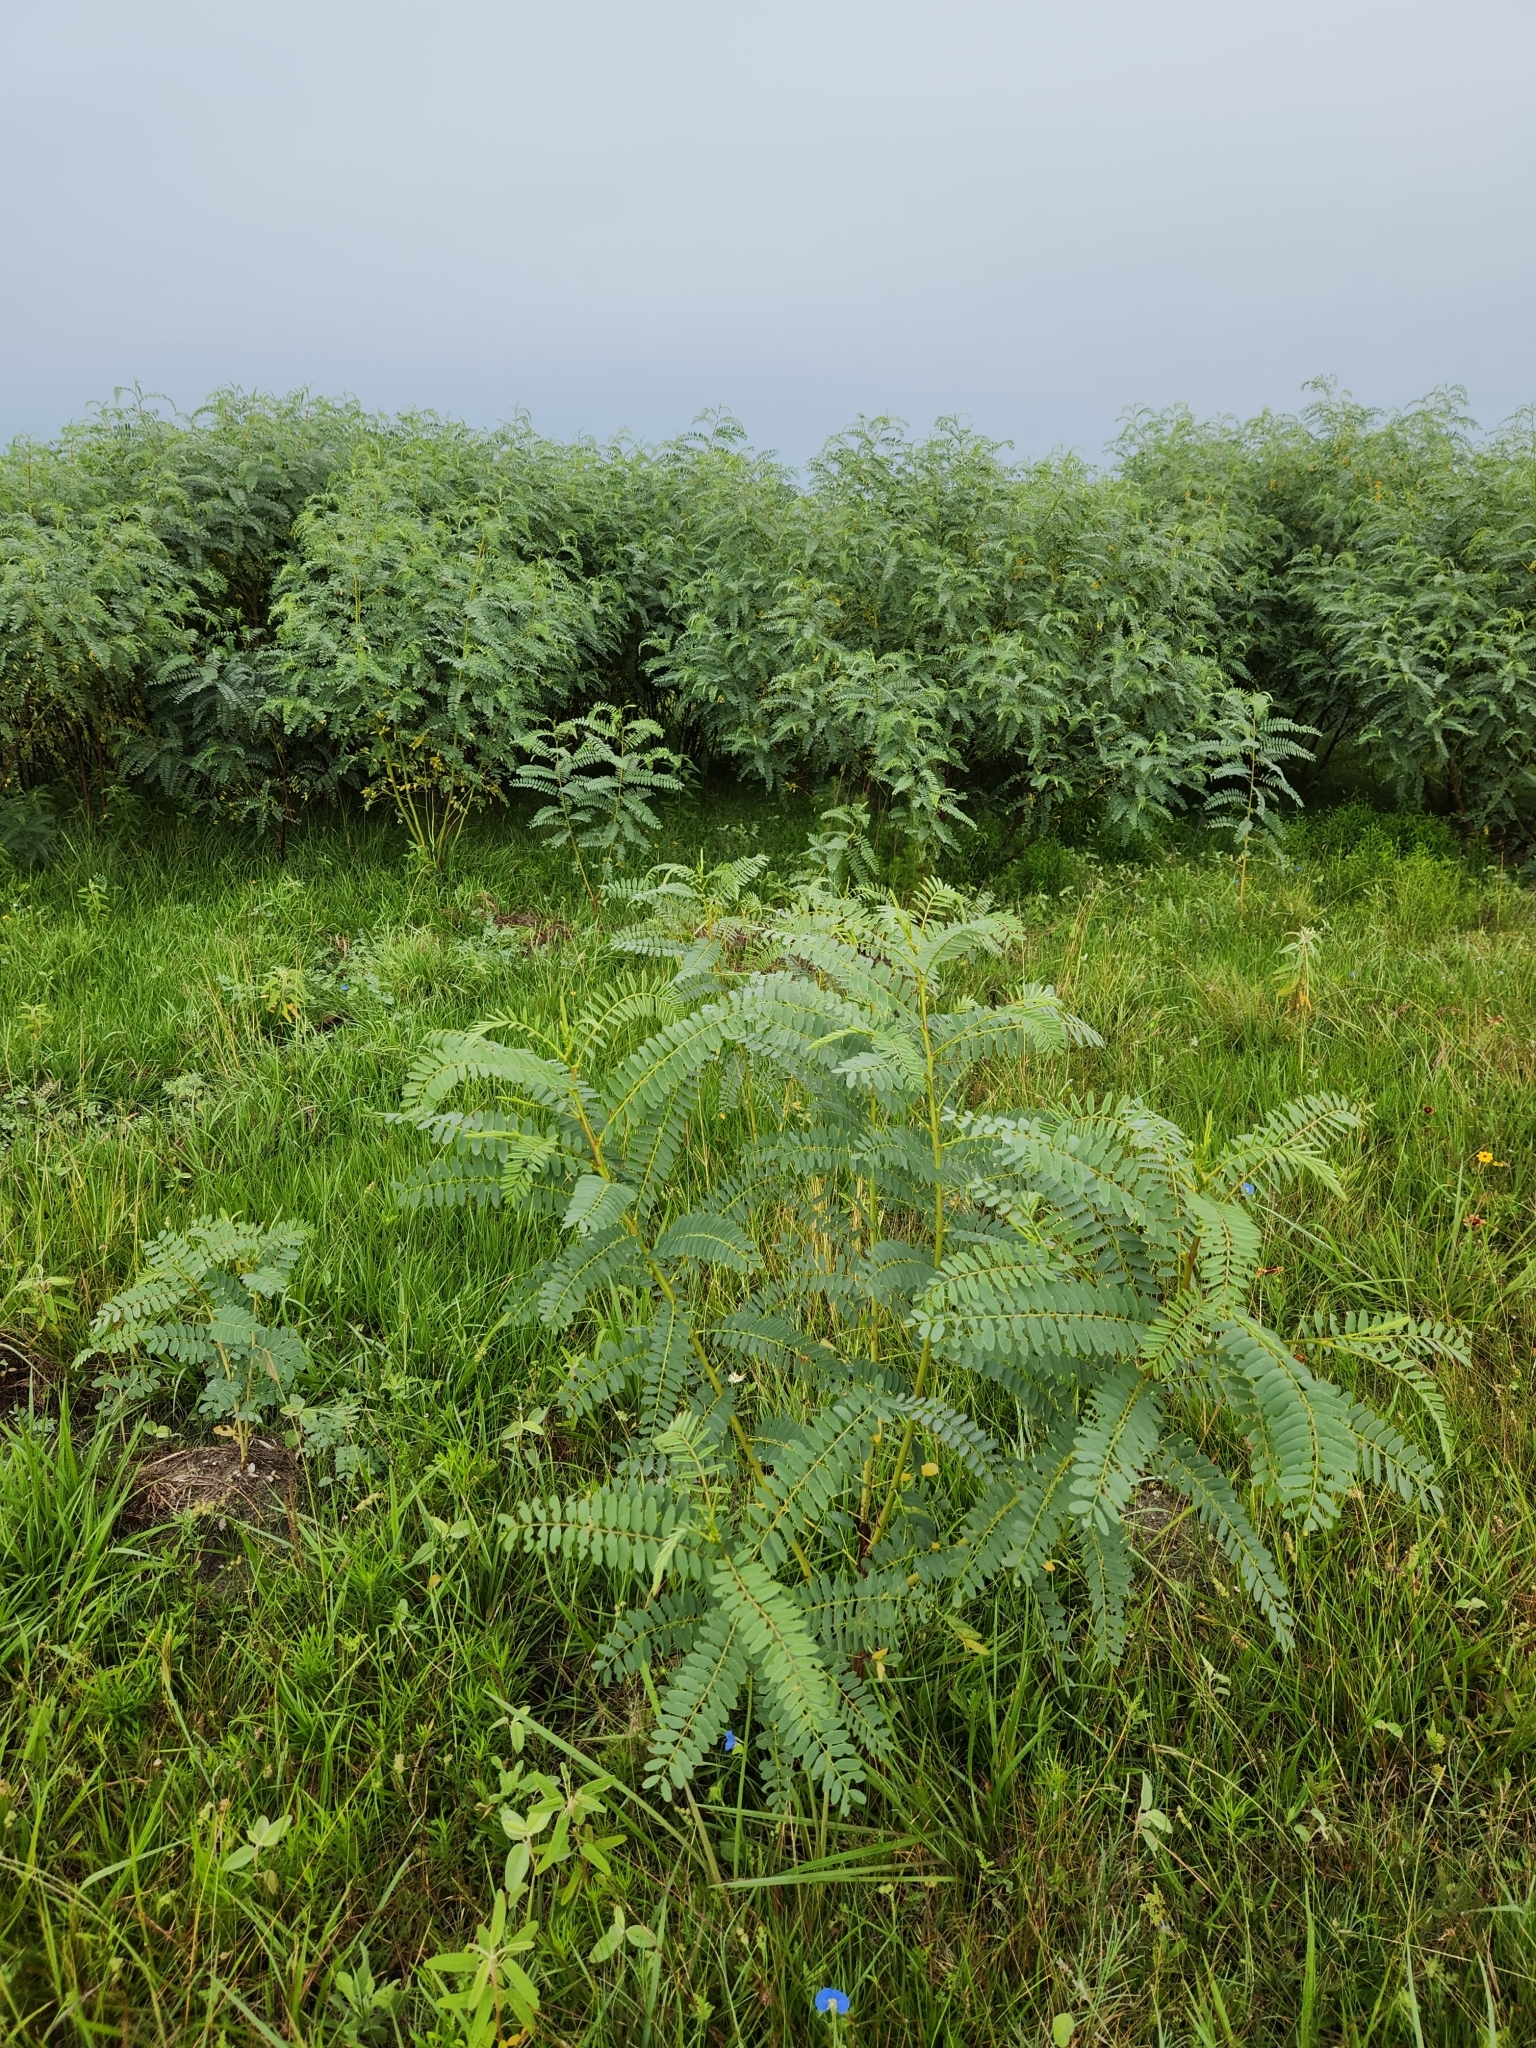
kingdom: Plantae
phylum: Tracheophyta
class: Magnoliopsida
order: Fabales
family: Fabaceae
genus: Sesbania
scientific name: Sesbania drummondii
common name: Poison-bean
